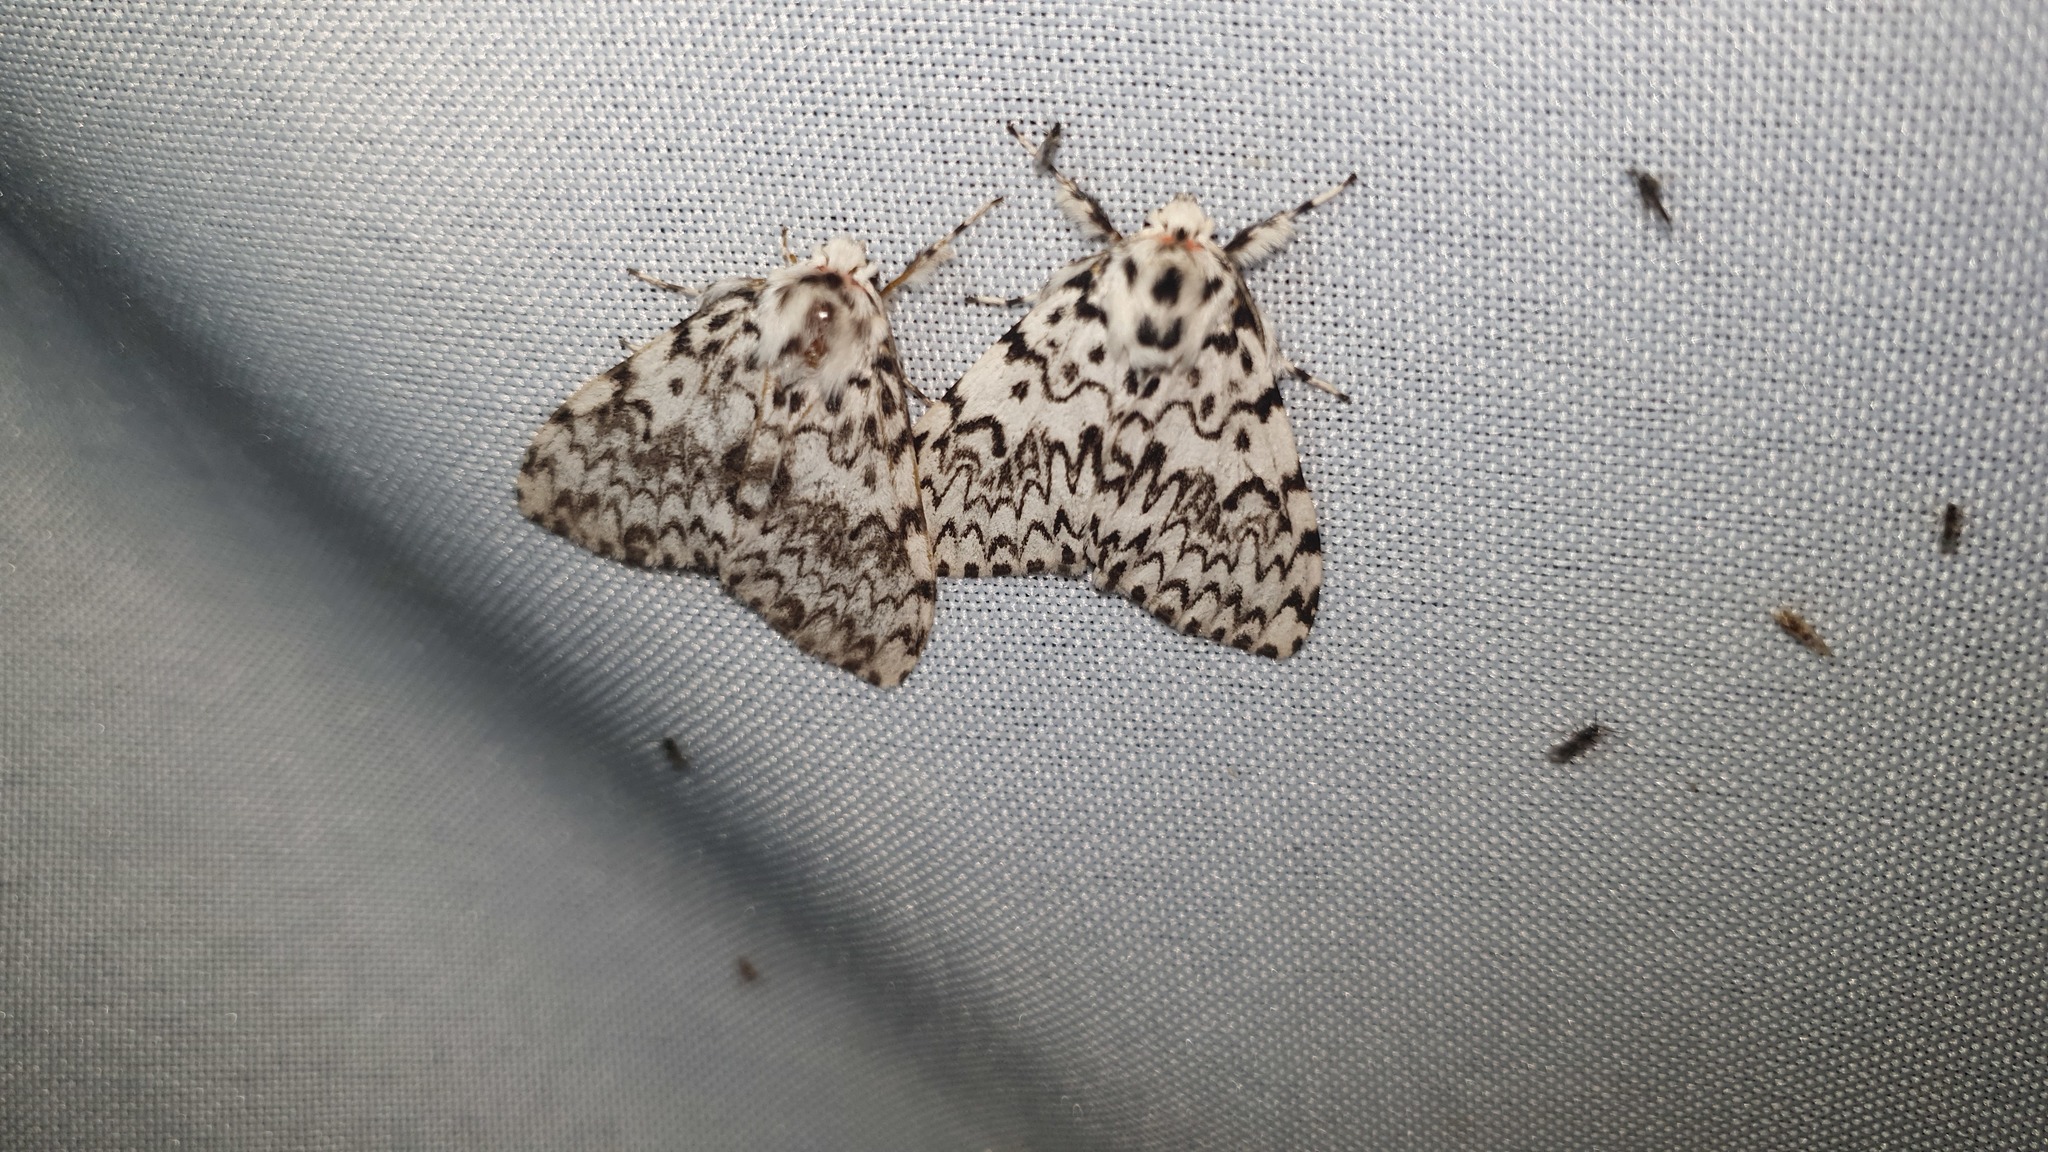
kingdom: Animalia
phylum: Arthropoda
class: Insecta
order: Lepidoptera
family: Erebidae
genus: Lymantria
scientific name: Lymantria monacha
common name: Black arches
